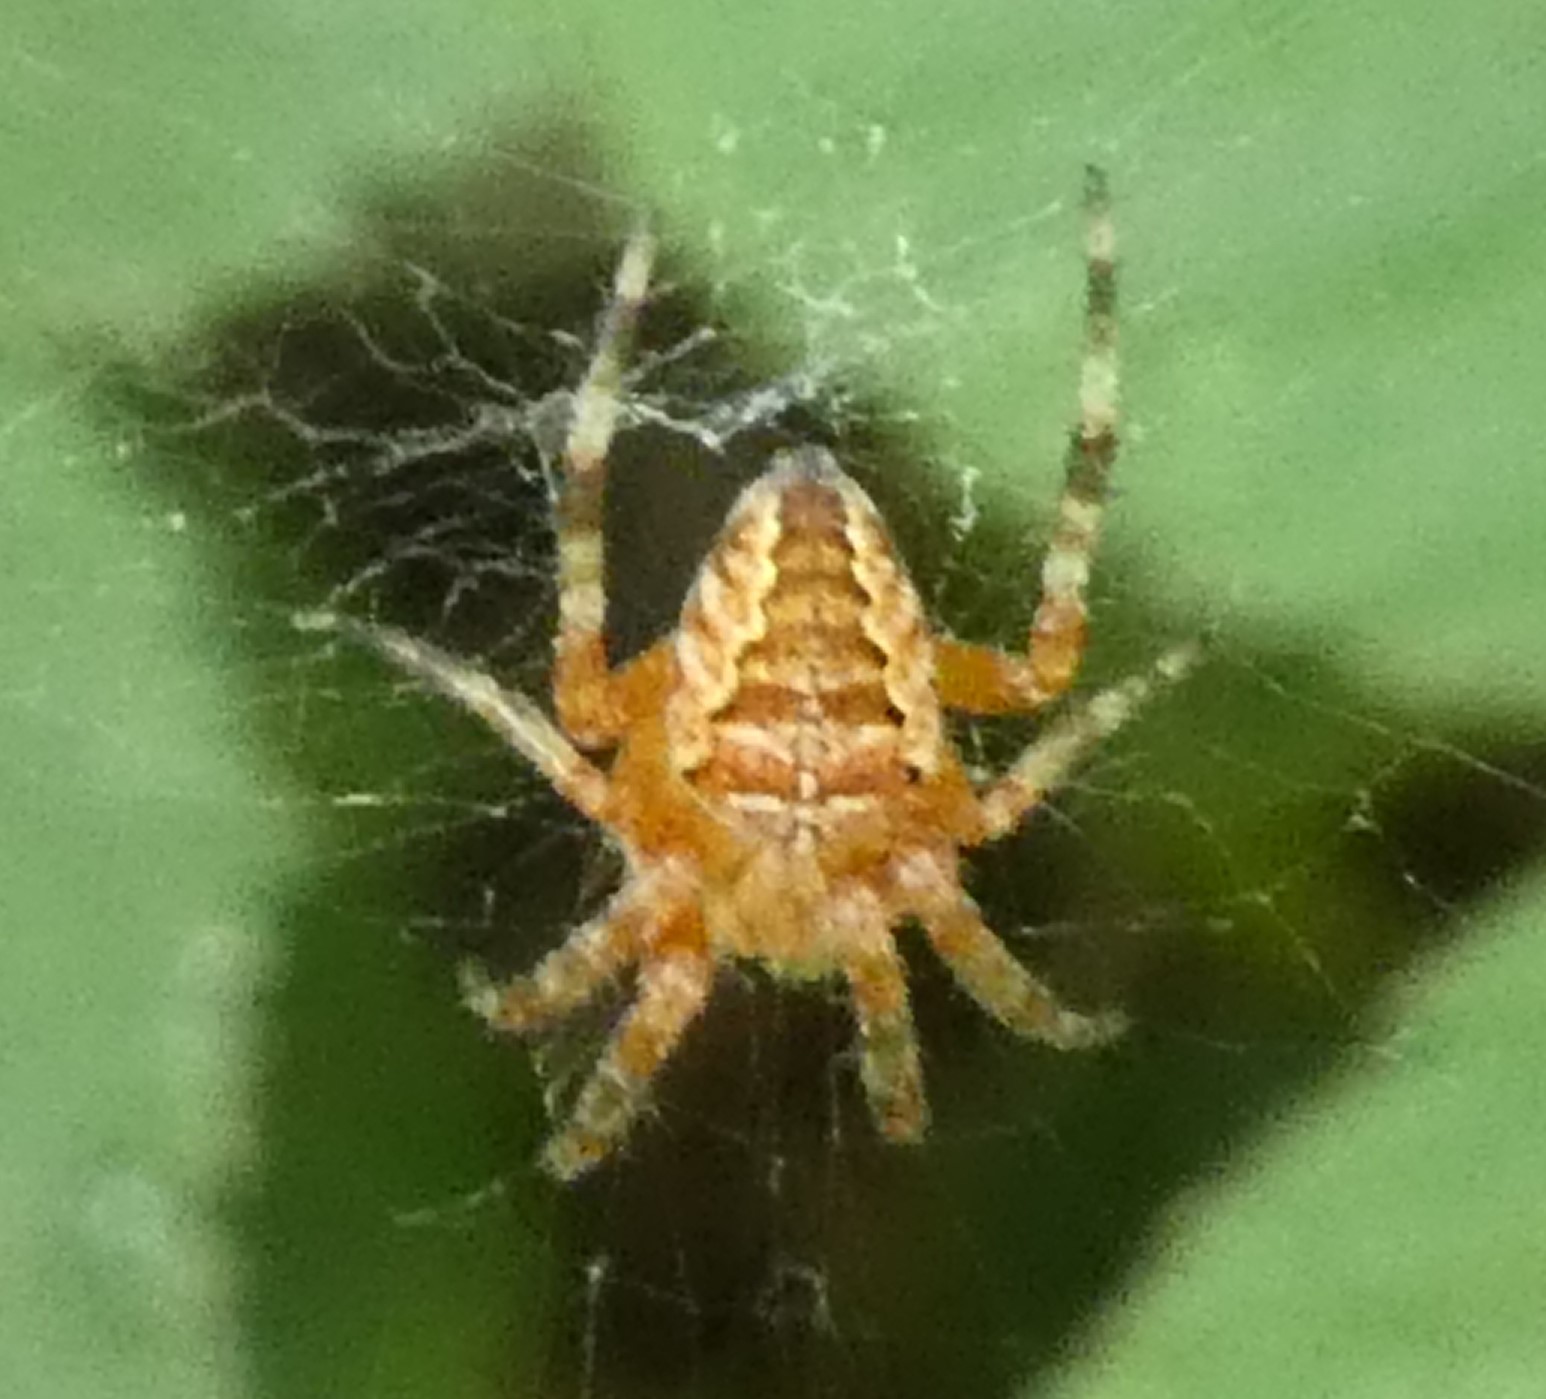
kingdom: Animalia
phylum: Arthropoda
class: Arachnida
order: Araneae
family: Araneidae
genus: Araneus
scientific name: Araneus diadematus
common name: Cross orbweaver
